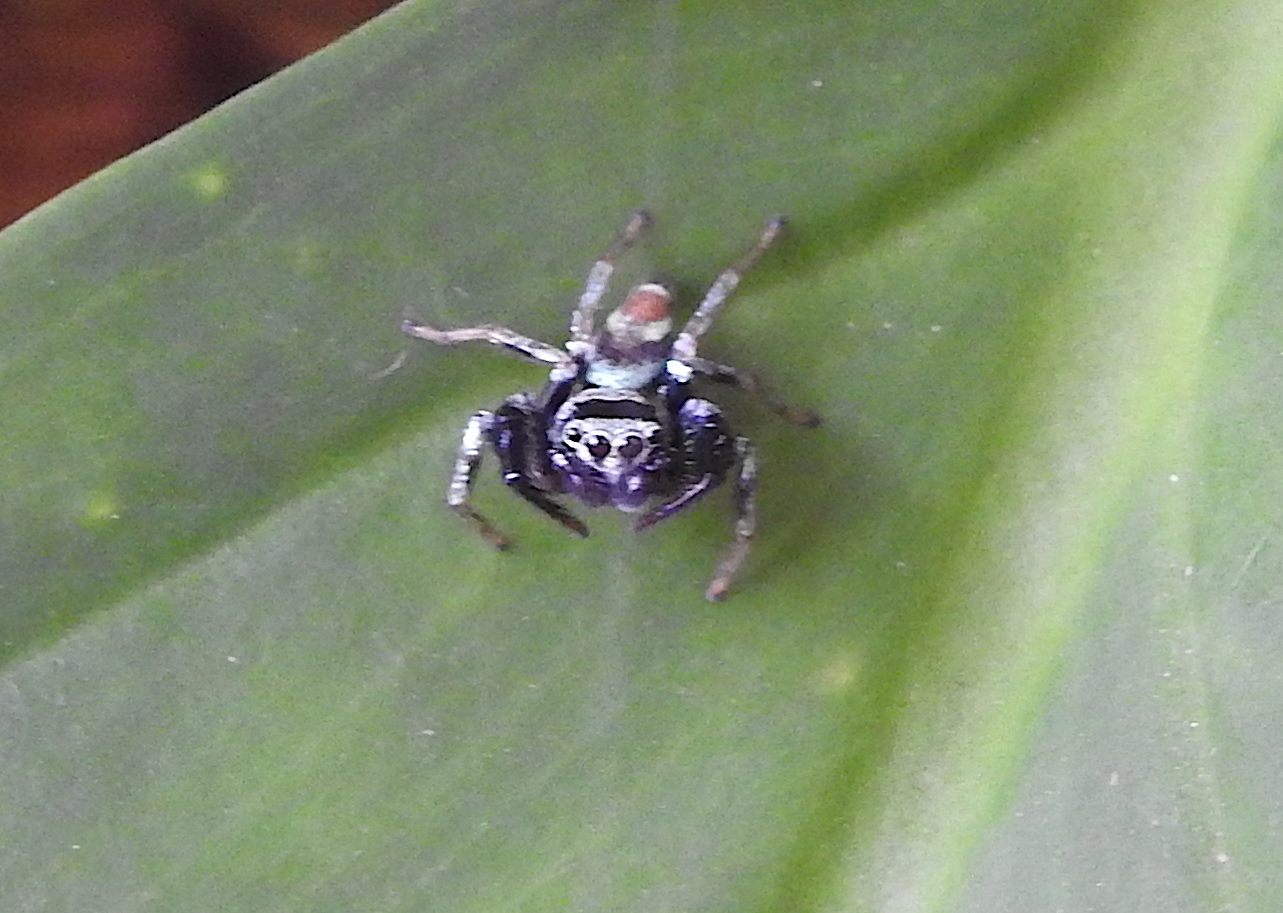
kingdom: Animalia
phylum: Arthropoda
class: Arachnida
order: Araneae
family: Salticidae
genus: Thiania
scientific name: Thiania bhamoensis
